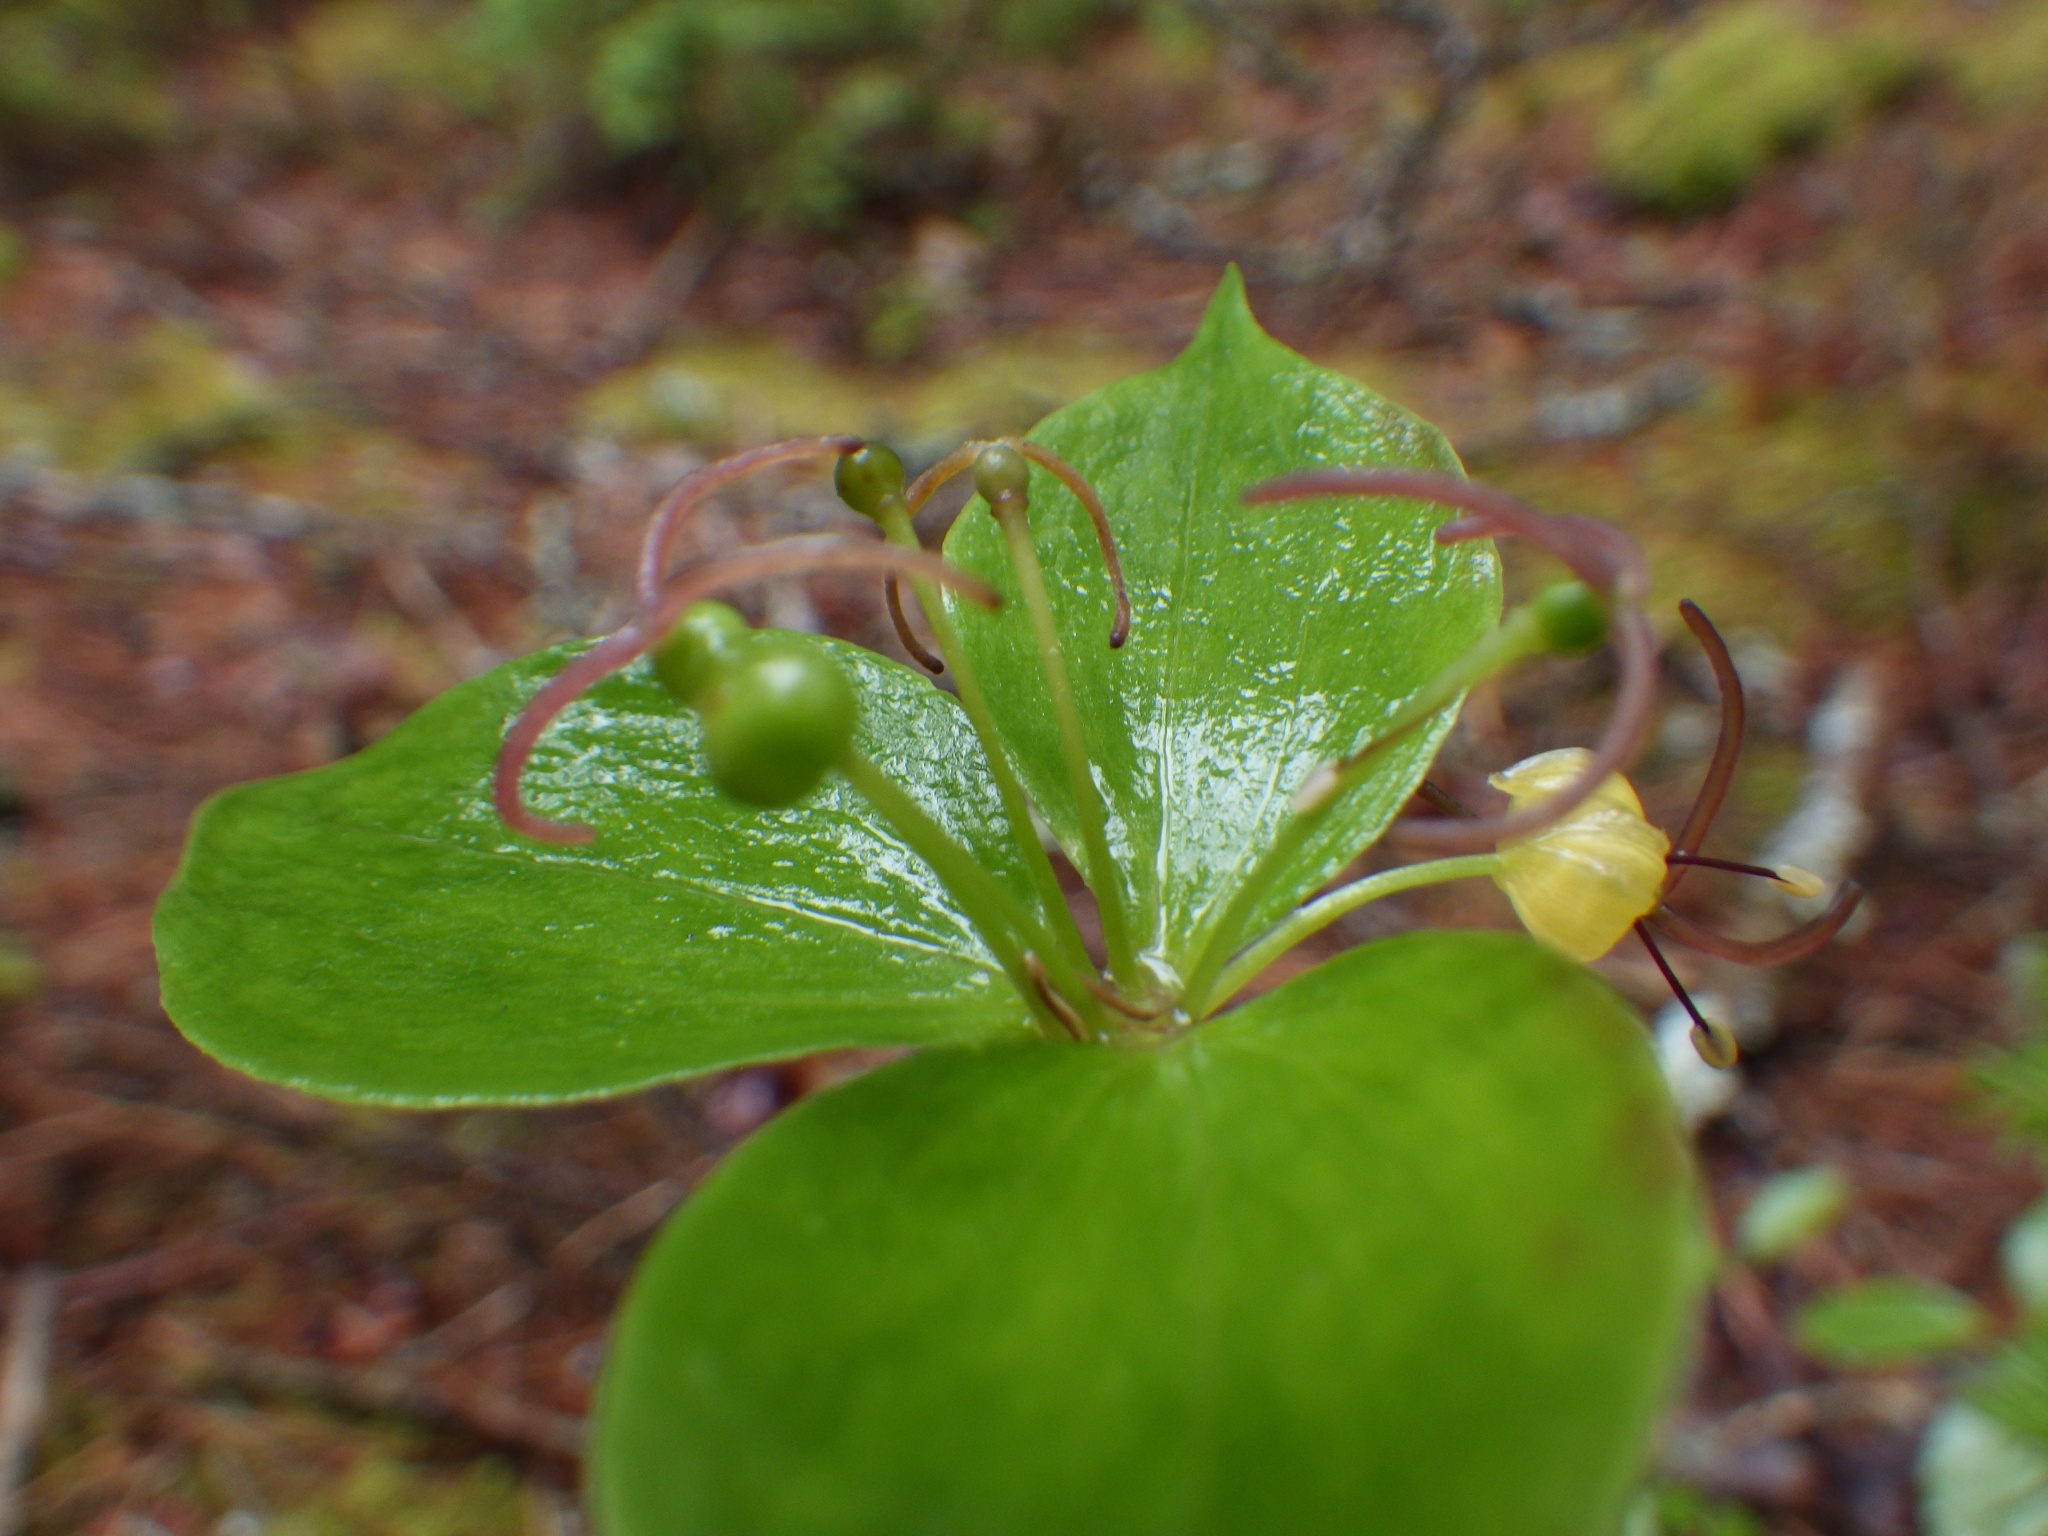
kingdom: Plantae
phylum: Tracheophyta
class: Liliopsida
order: Liliales
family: Liliaceae
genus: Medeola
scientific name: Medeola virginiana
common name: Indian cucumber-root
